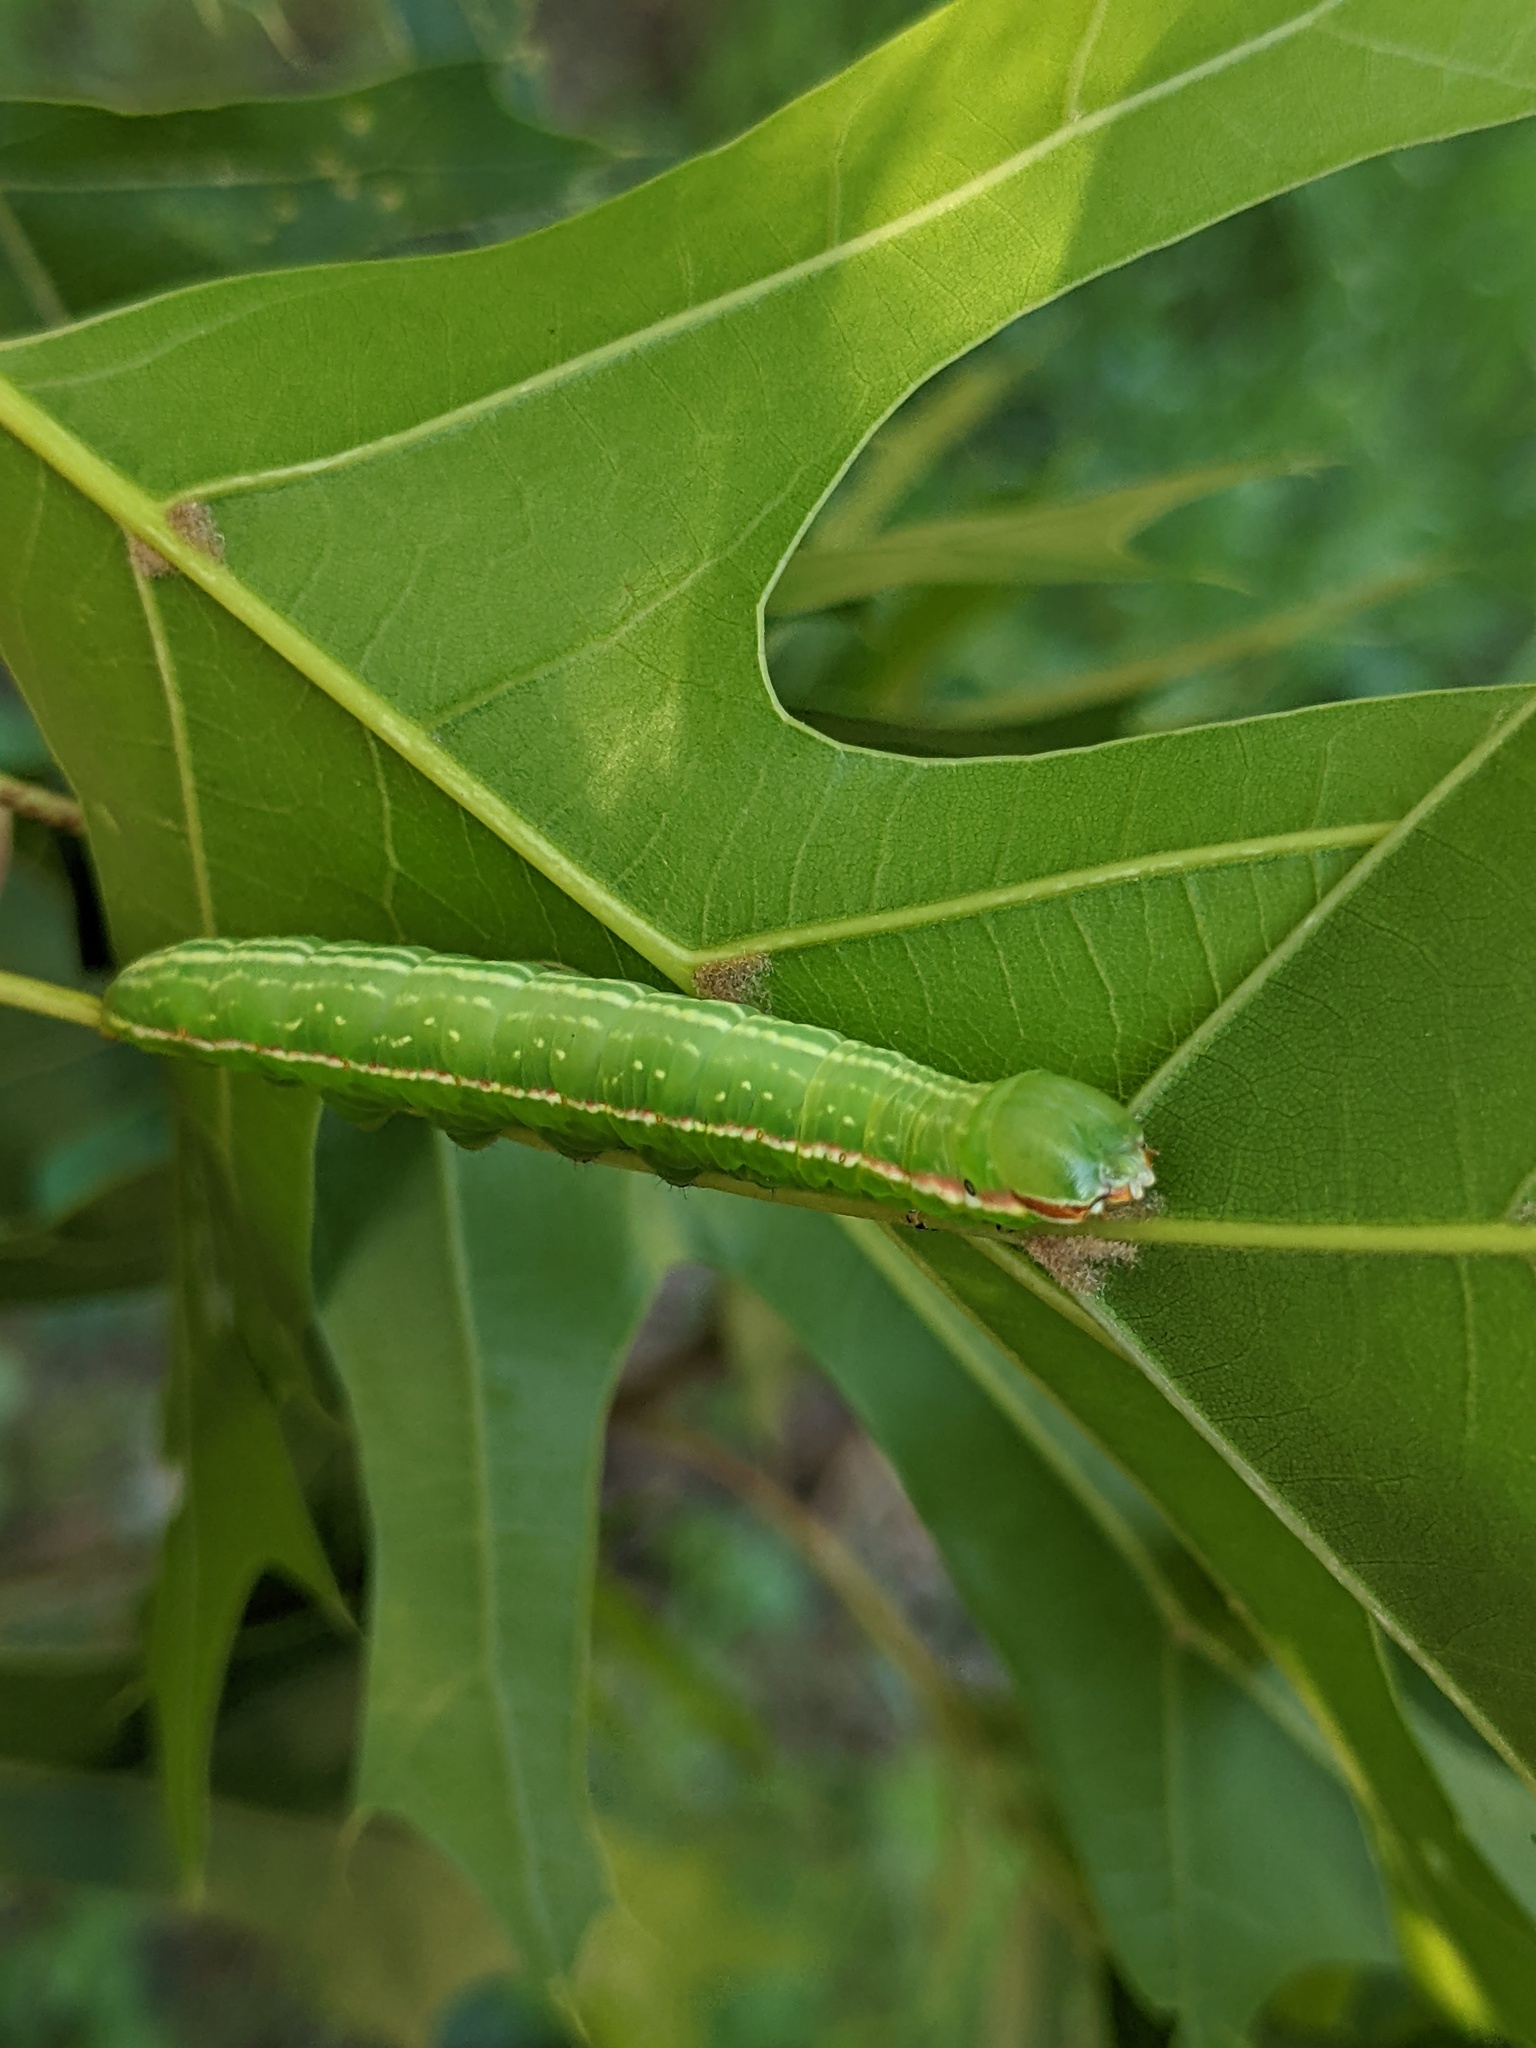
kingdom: Animalia
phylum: Arthropoda
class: Insecta
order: Lepidoptera
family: Notodontidae
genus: Peridea
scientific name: Peridea angulosa
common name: Angulose prominent
